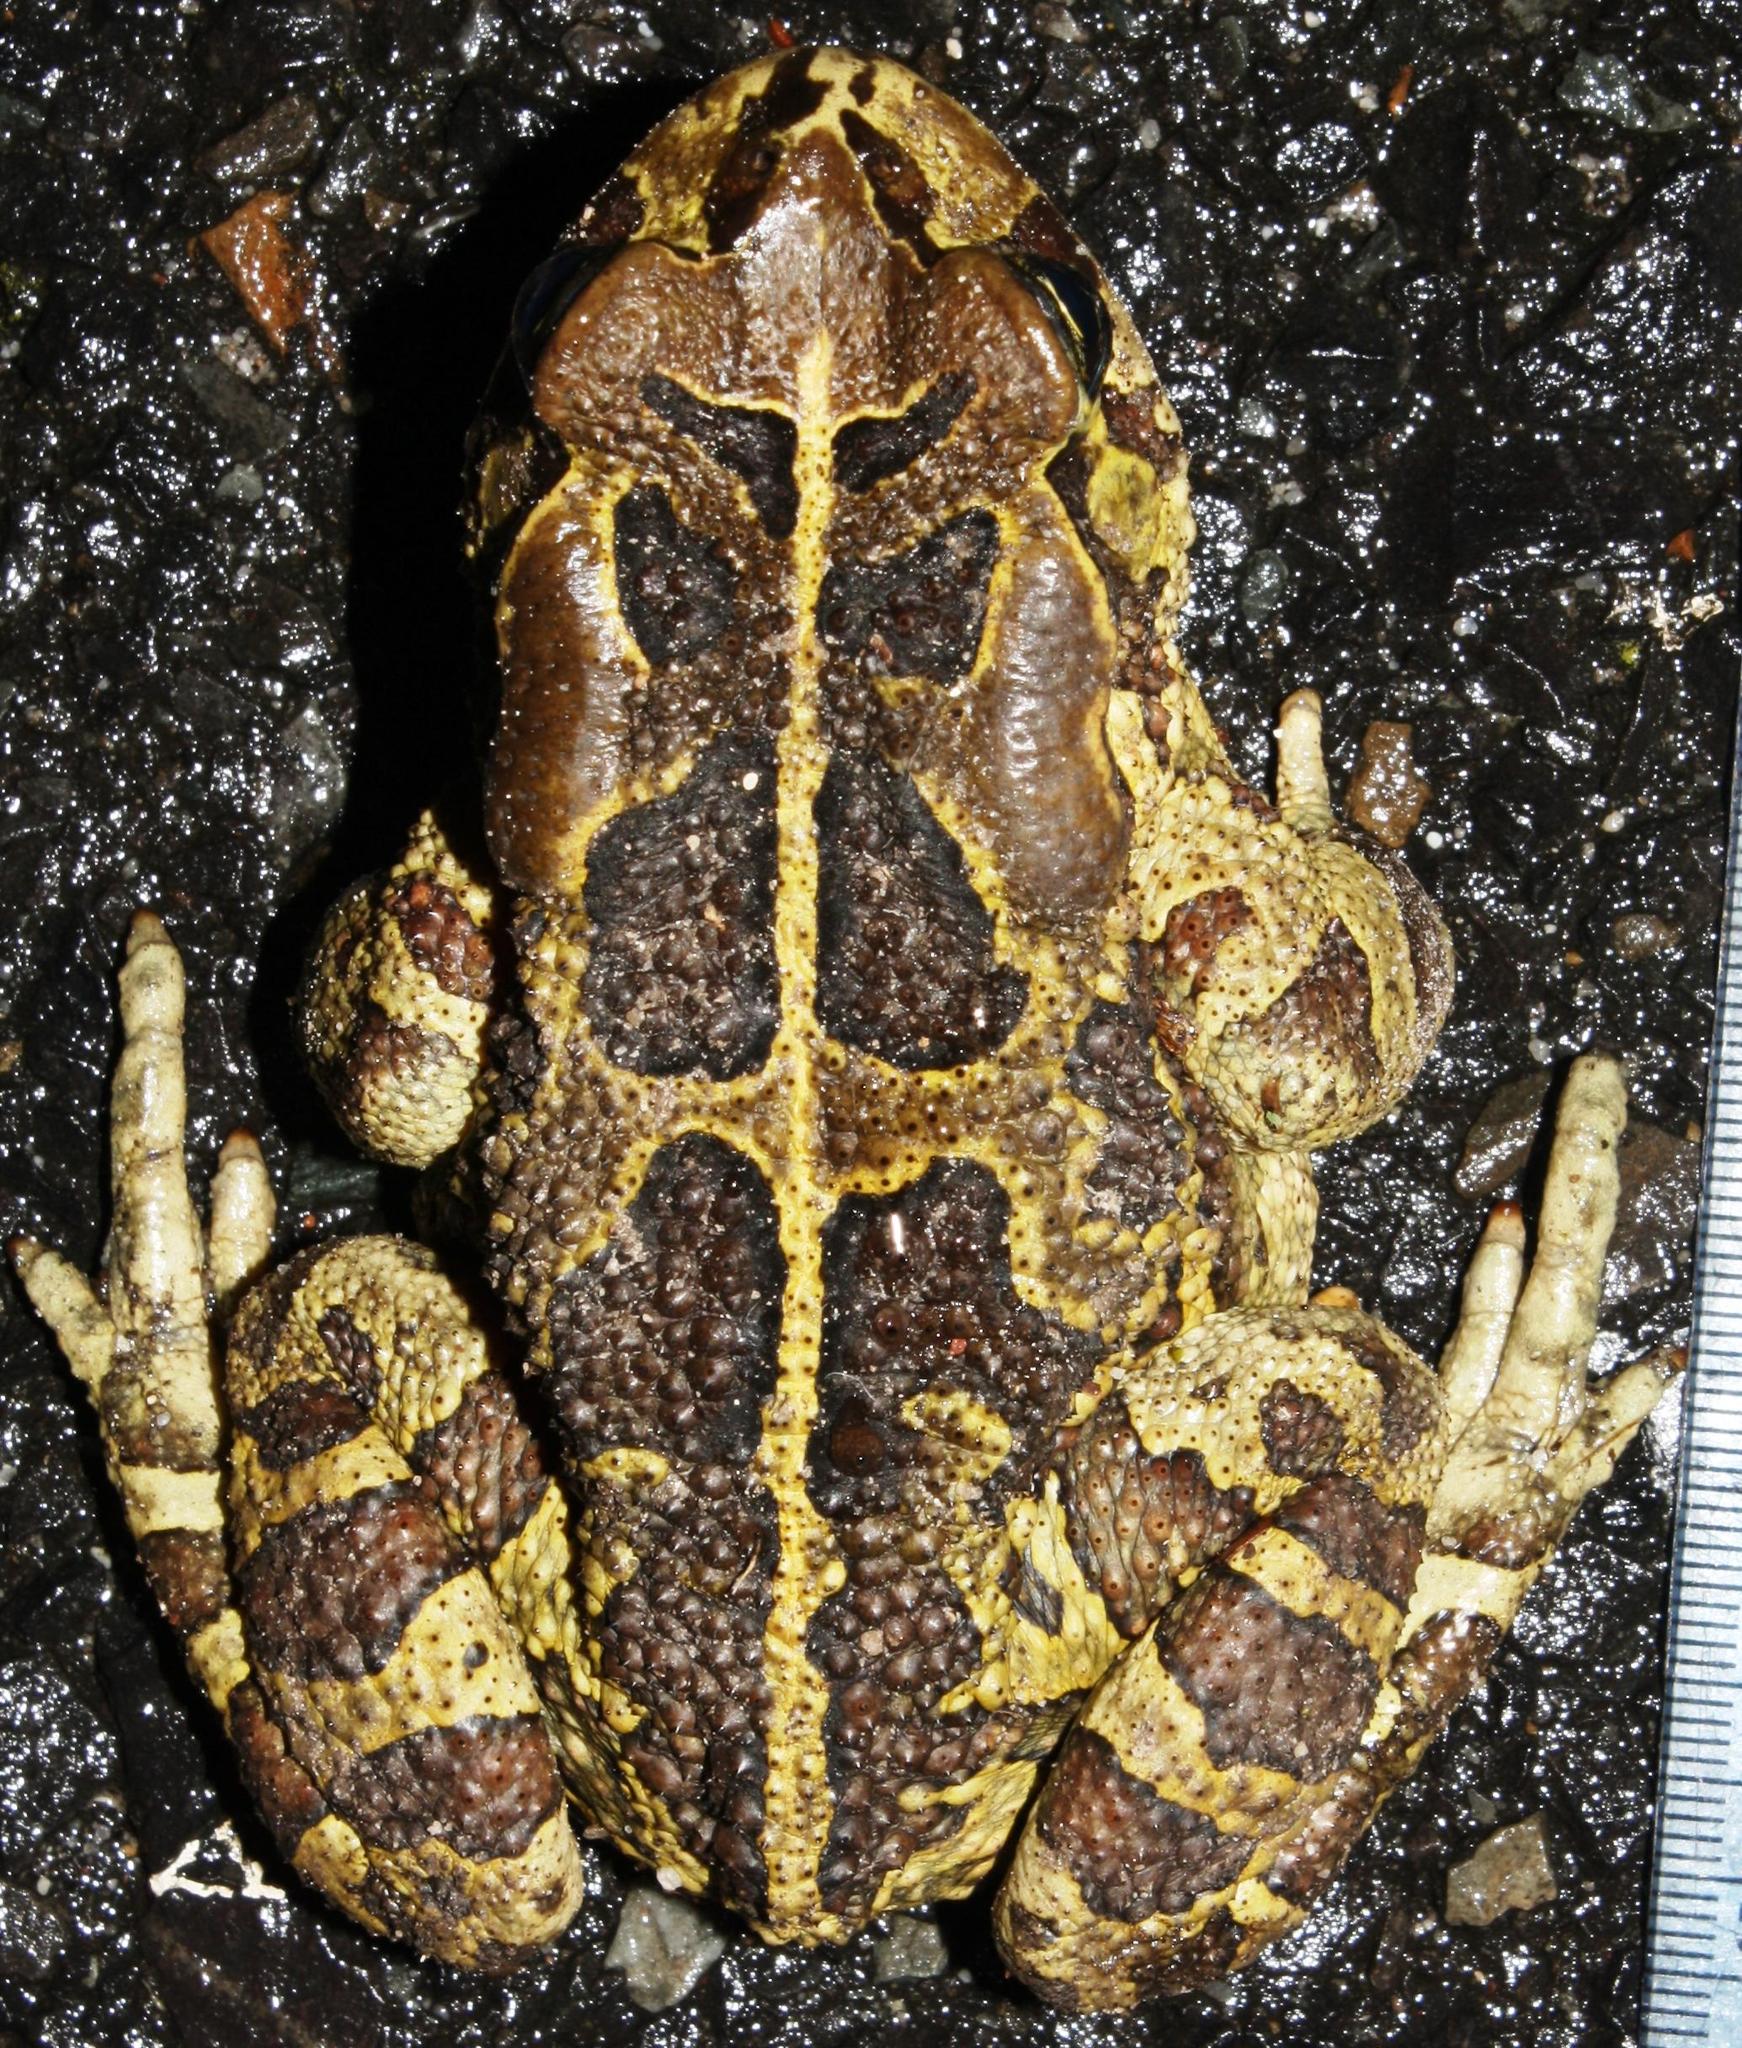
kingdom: Animalia
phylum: Chordata
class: Amphibia
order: Anura
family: Bufonidae
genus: Sclerophrys
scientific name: Sclerophrys pantherina
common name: Panther toad
